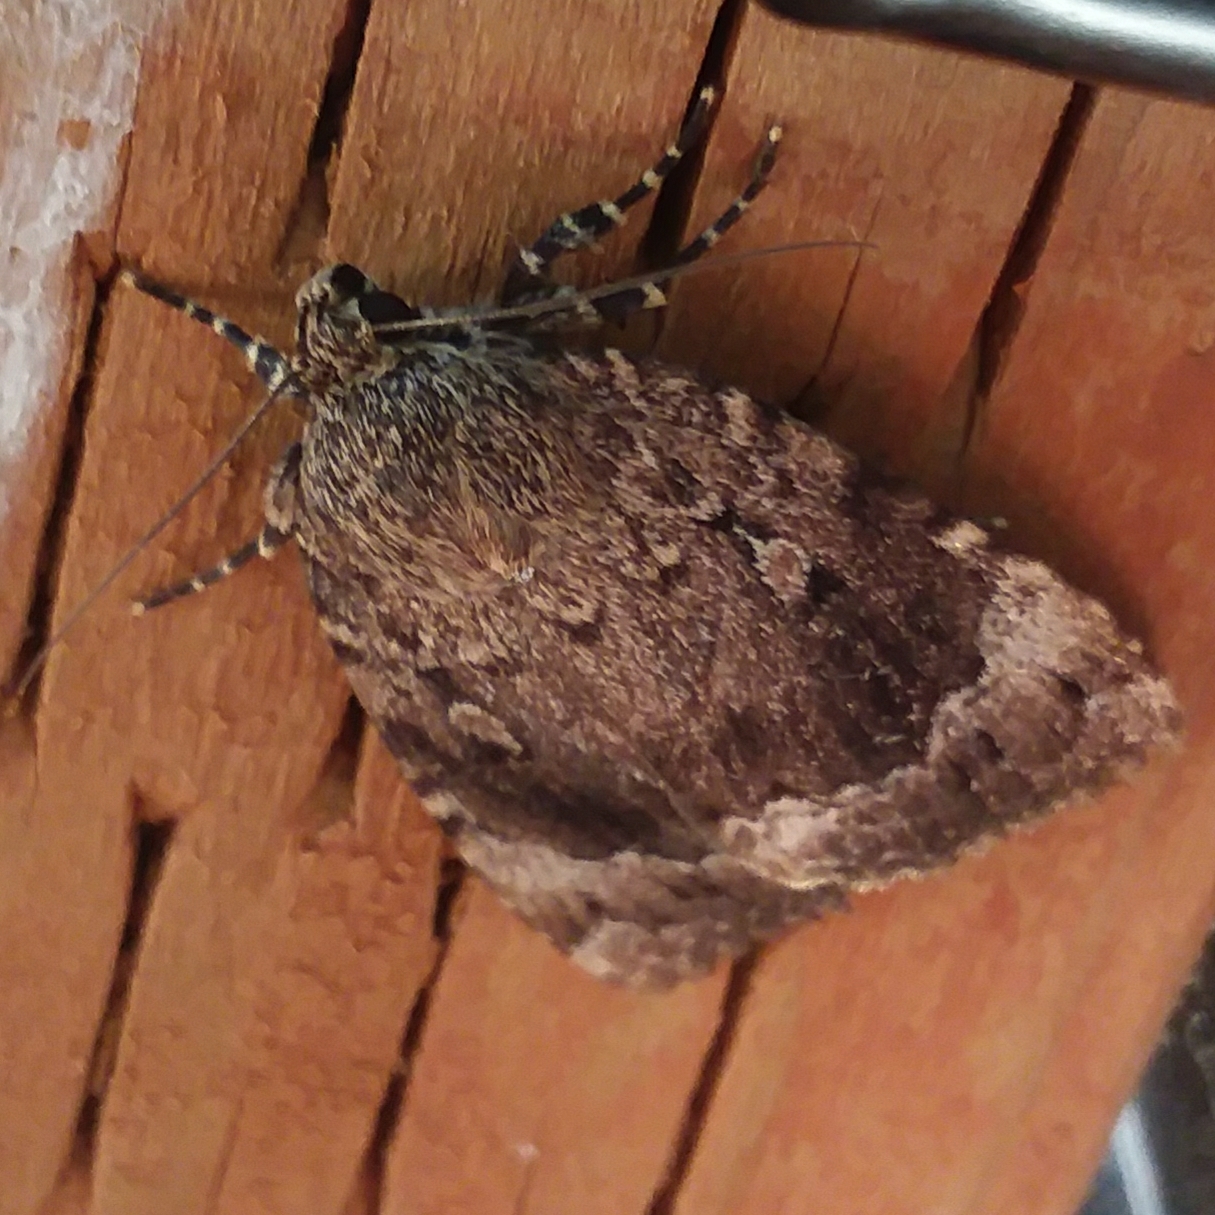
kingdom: Animalia
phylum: Arthropoda
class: Insecta
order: Lepidoptera
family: Noctuidae
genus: Amphipyra
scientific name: Amphipyra pyramidoides
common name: American copper underwing
